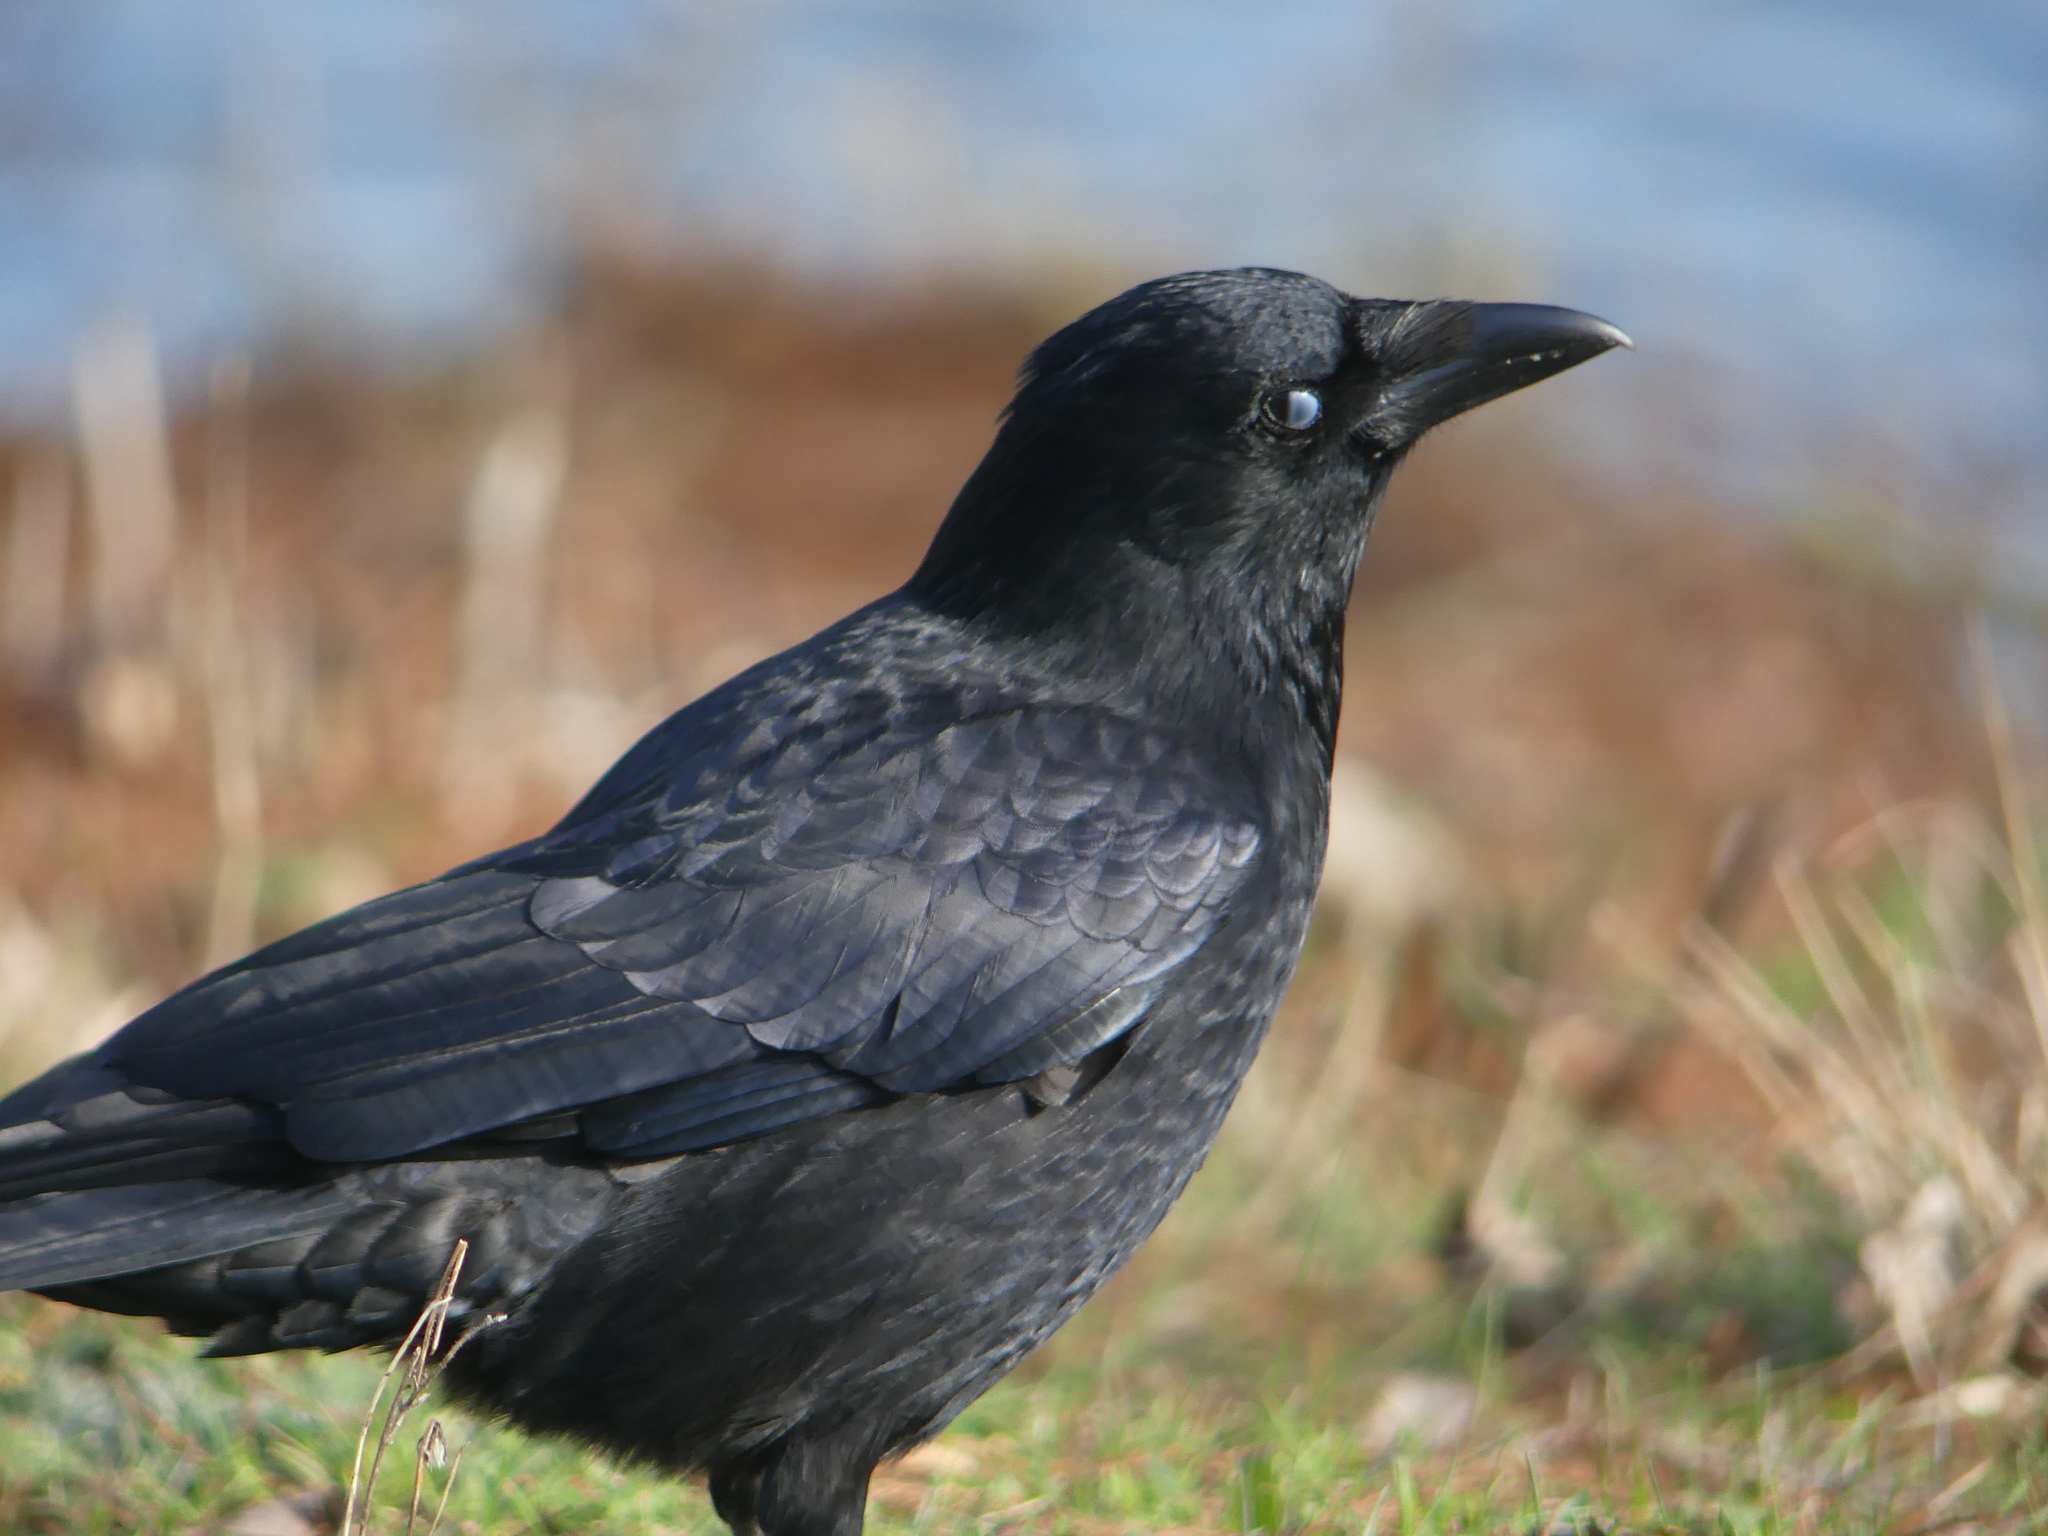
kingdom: Animalia
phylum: Chordata
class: Aves
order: Passeriformes
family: Corvidae
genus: Corvus
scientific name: Corvus corone
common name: Carrion crow
